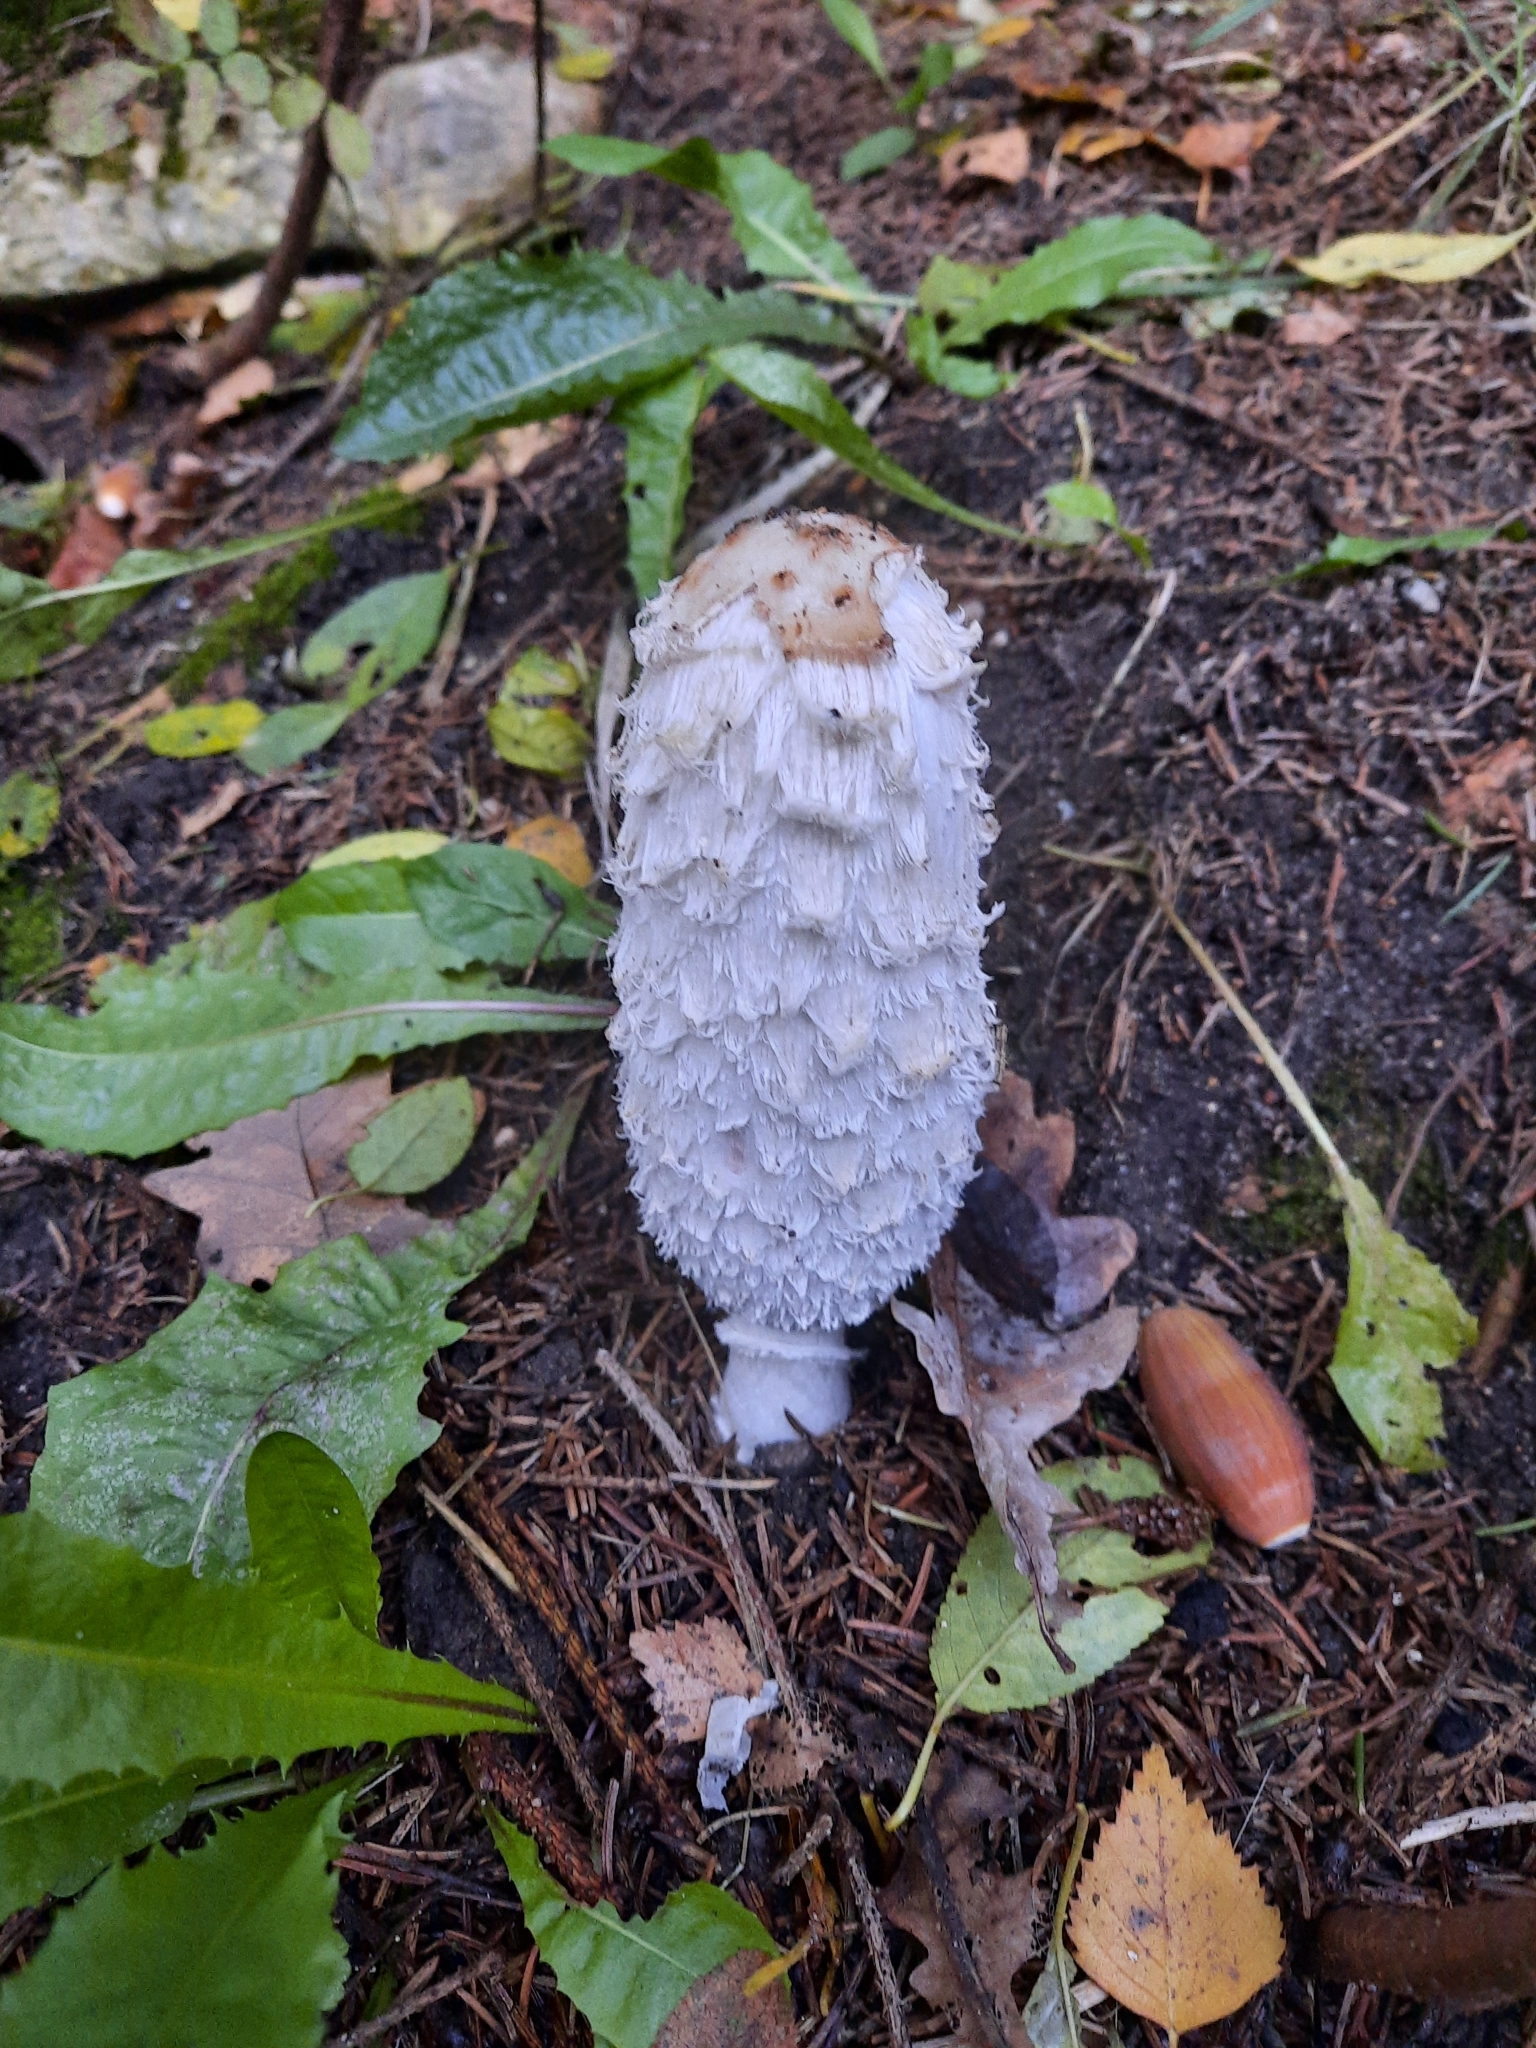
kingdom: Fungi
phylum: Basidiomycota
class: Agaricomycetes
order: Agaricales
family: Agaricaceae
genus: Coprinus
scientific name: Coprinus comatus
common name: Lawyer's wig
